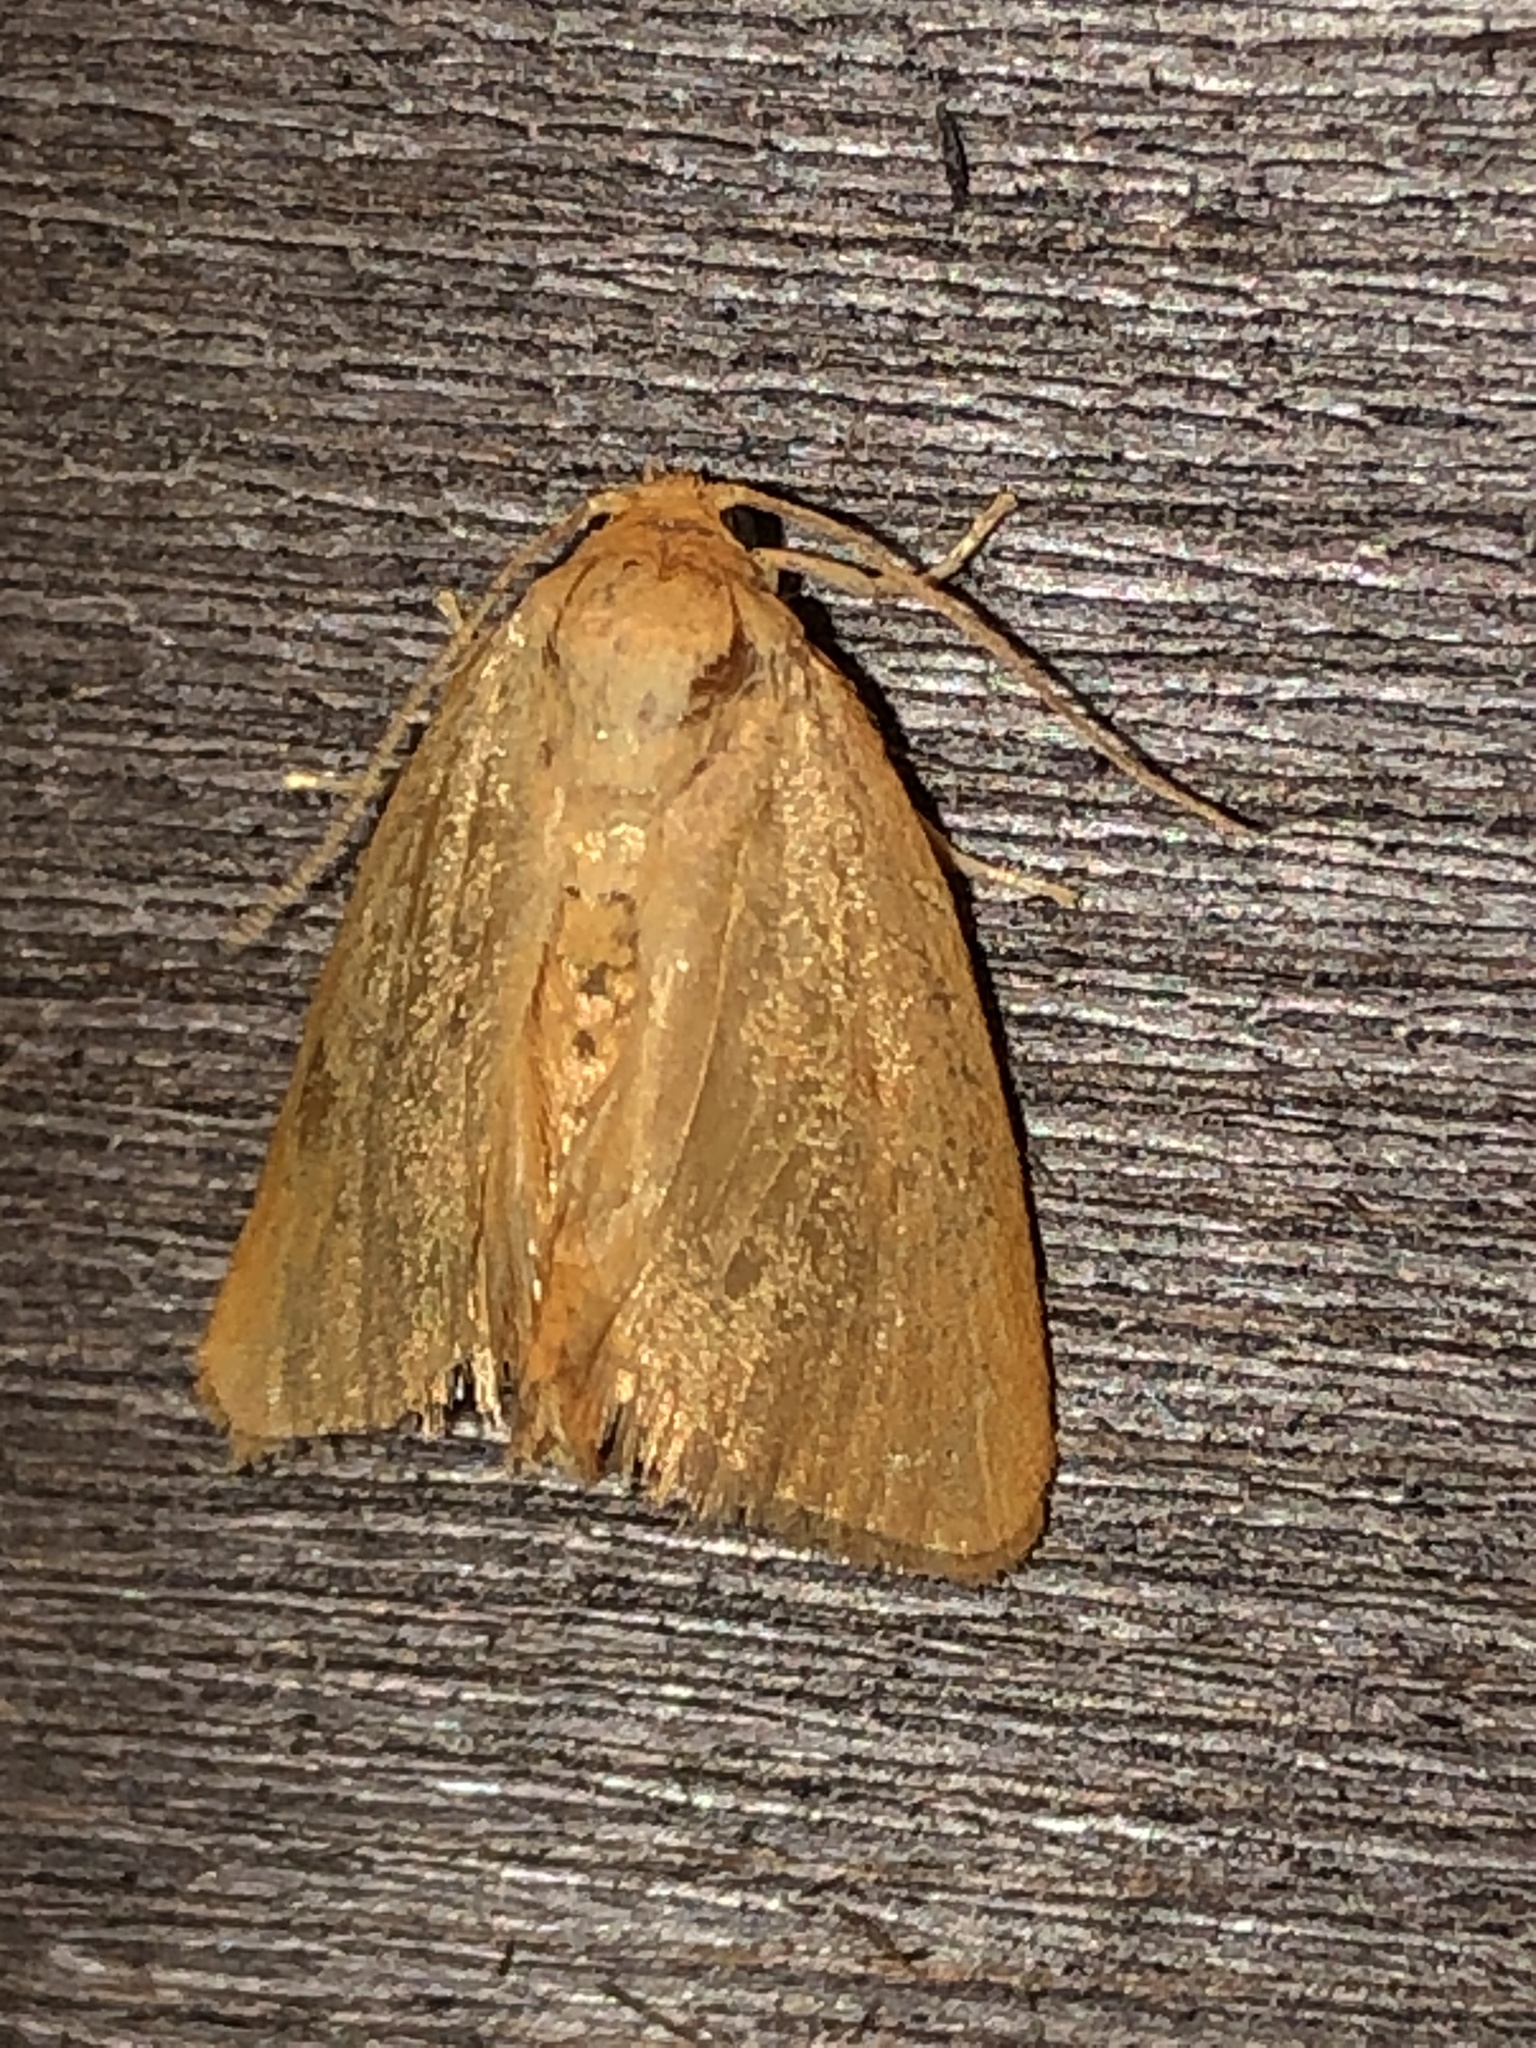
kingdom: Animalia
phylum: Arthropoda
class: Insecta
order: Lepidoptera
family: Limacodidae
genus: Tortricidia
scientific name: Tortricidia pallida
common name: Red-crossed button slug moth
